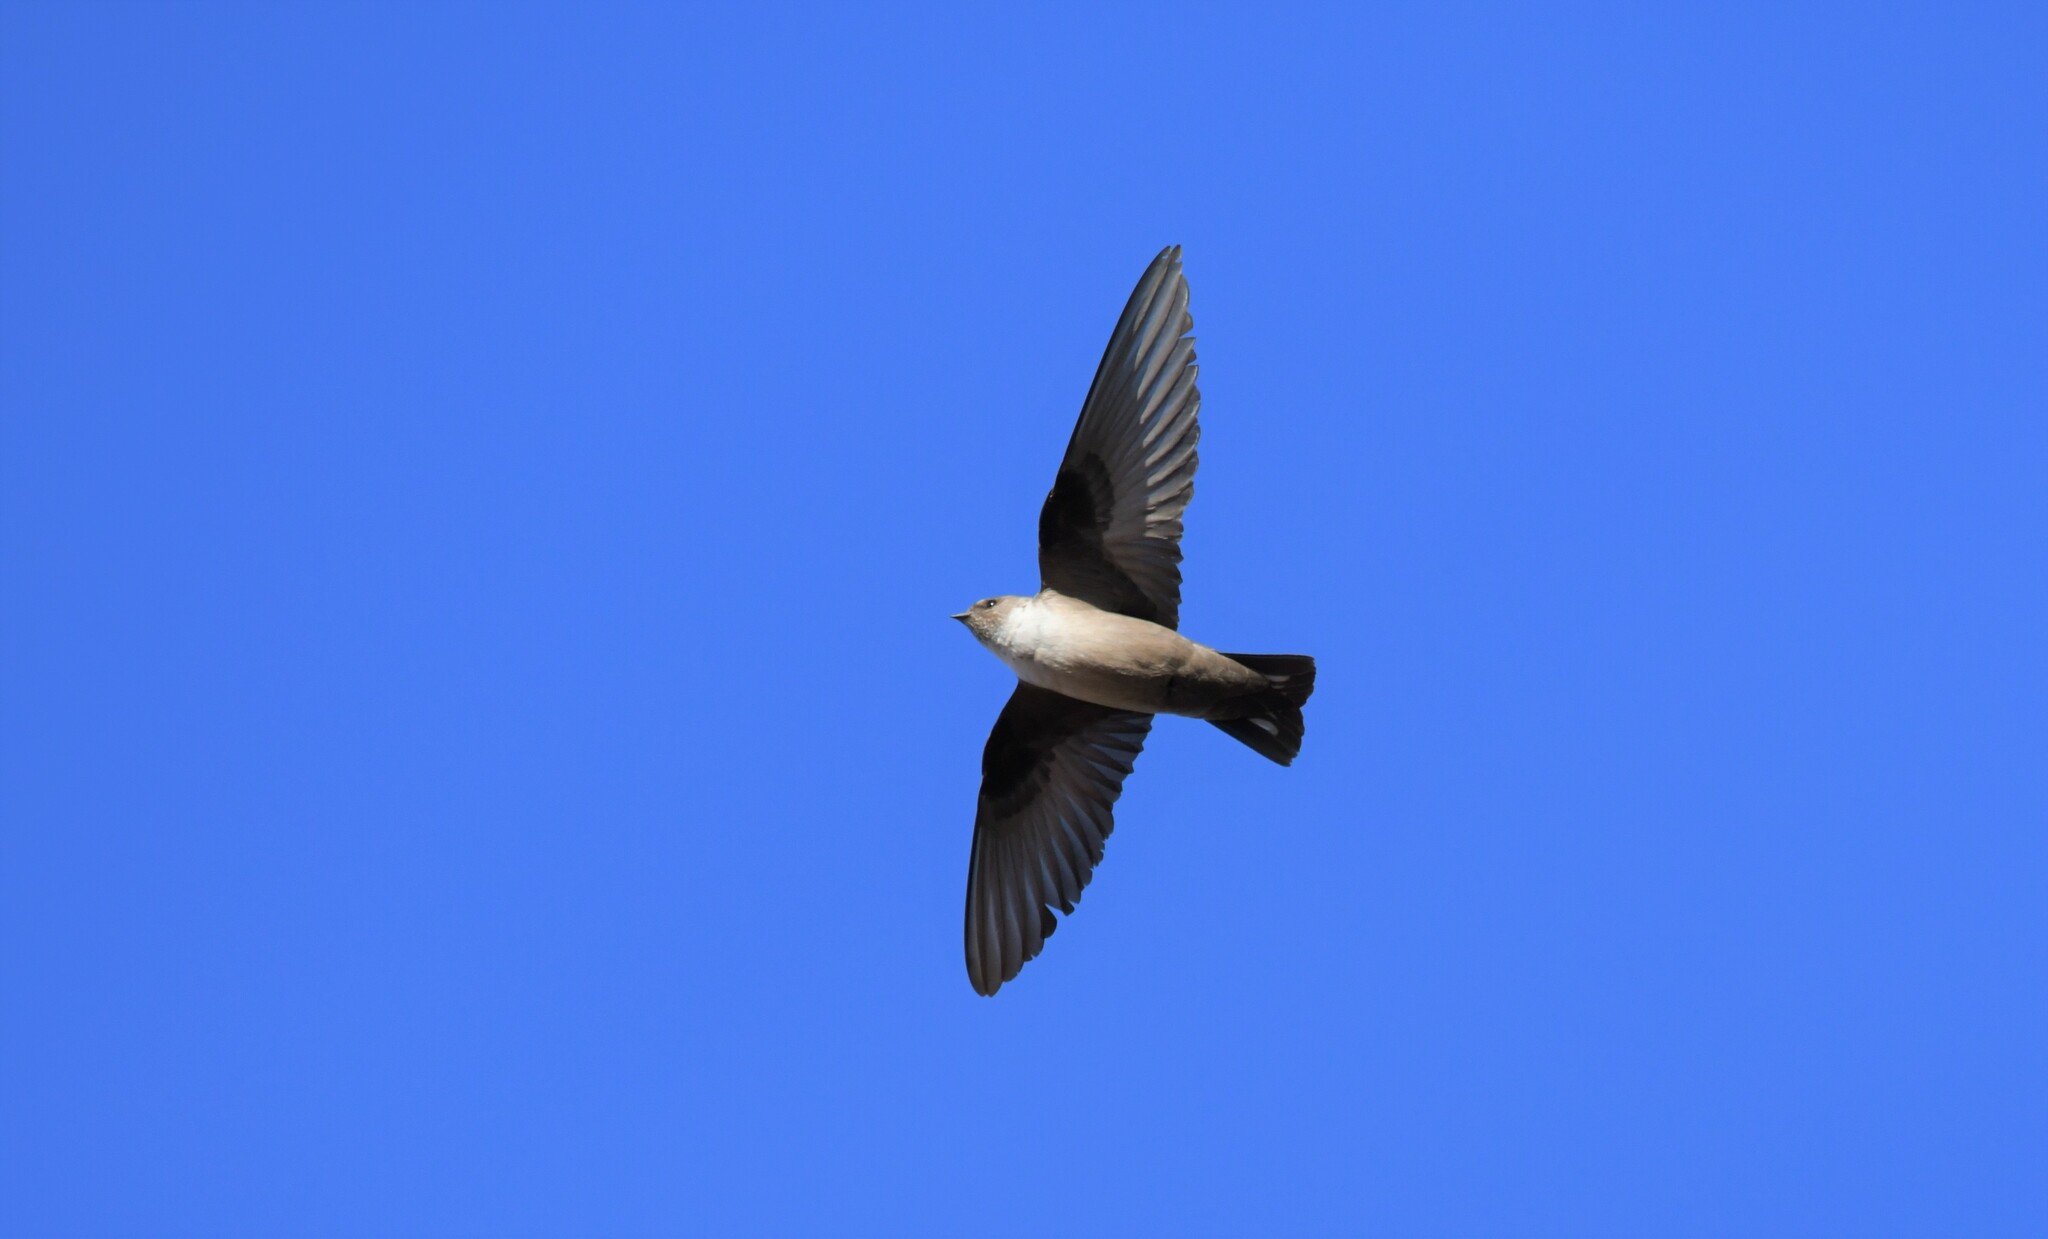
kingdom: Animalia
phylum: Chordata
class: Aves
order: Passeriformes
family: Hirundinidae
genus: Ptyonoprogne
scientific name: Ptyonoprogne rupestris
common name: Eurasian crag martin
